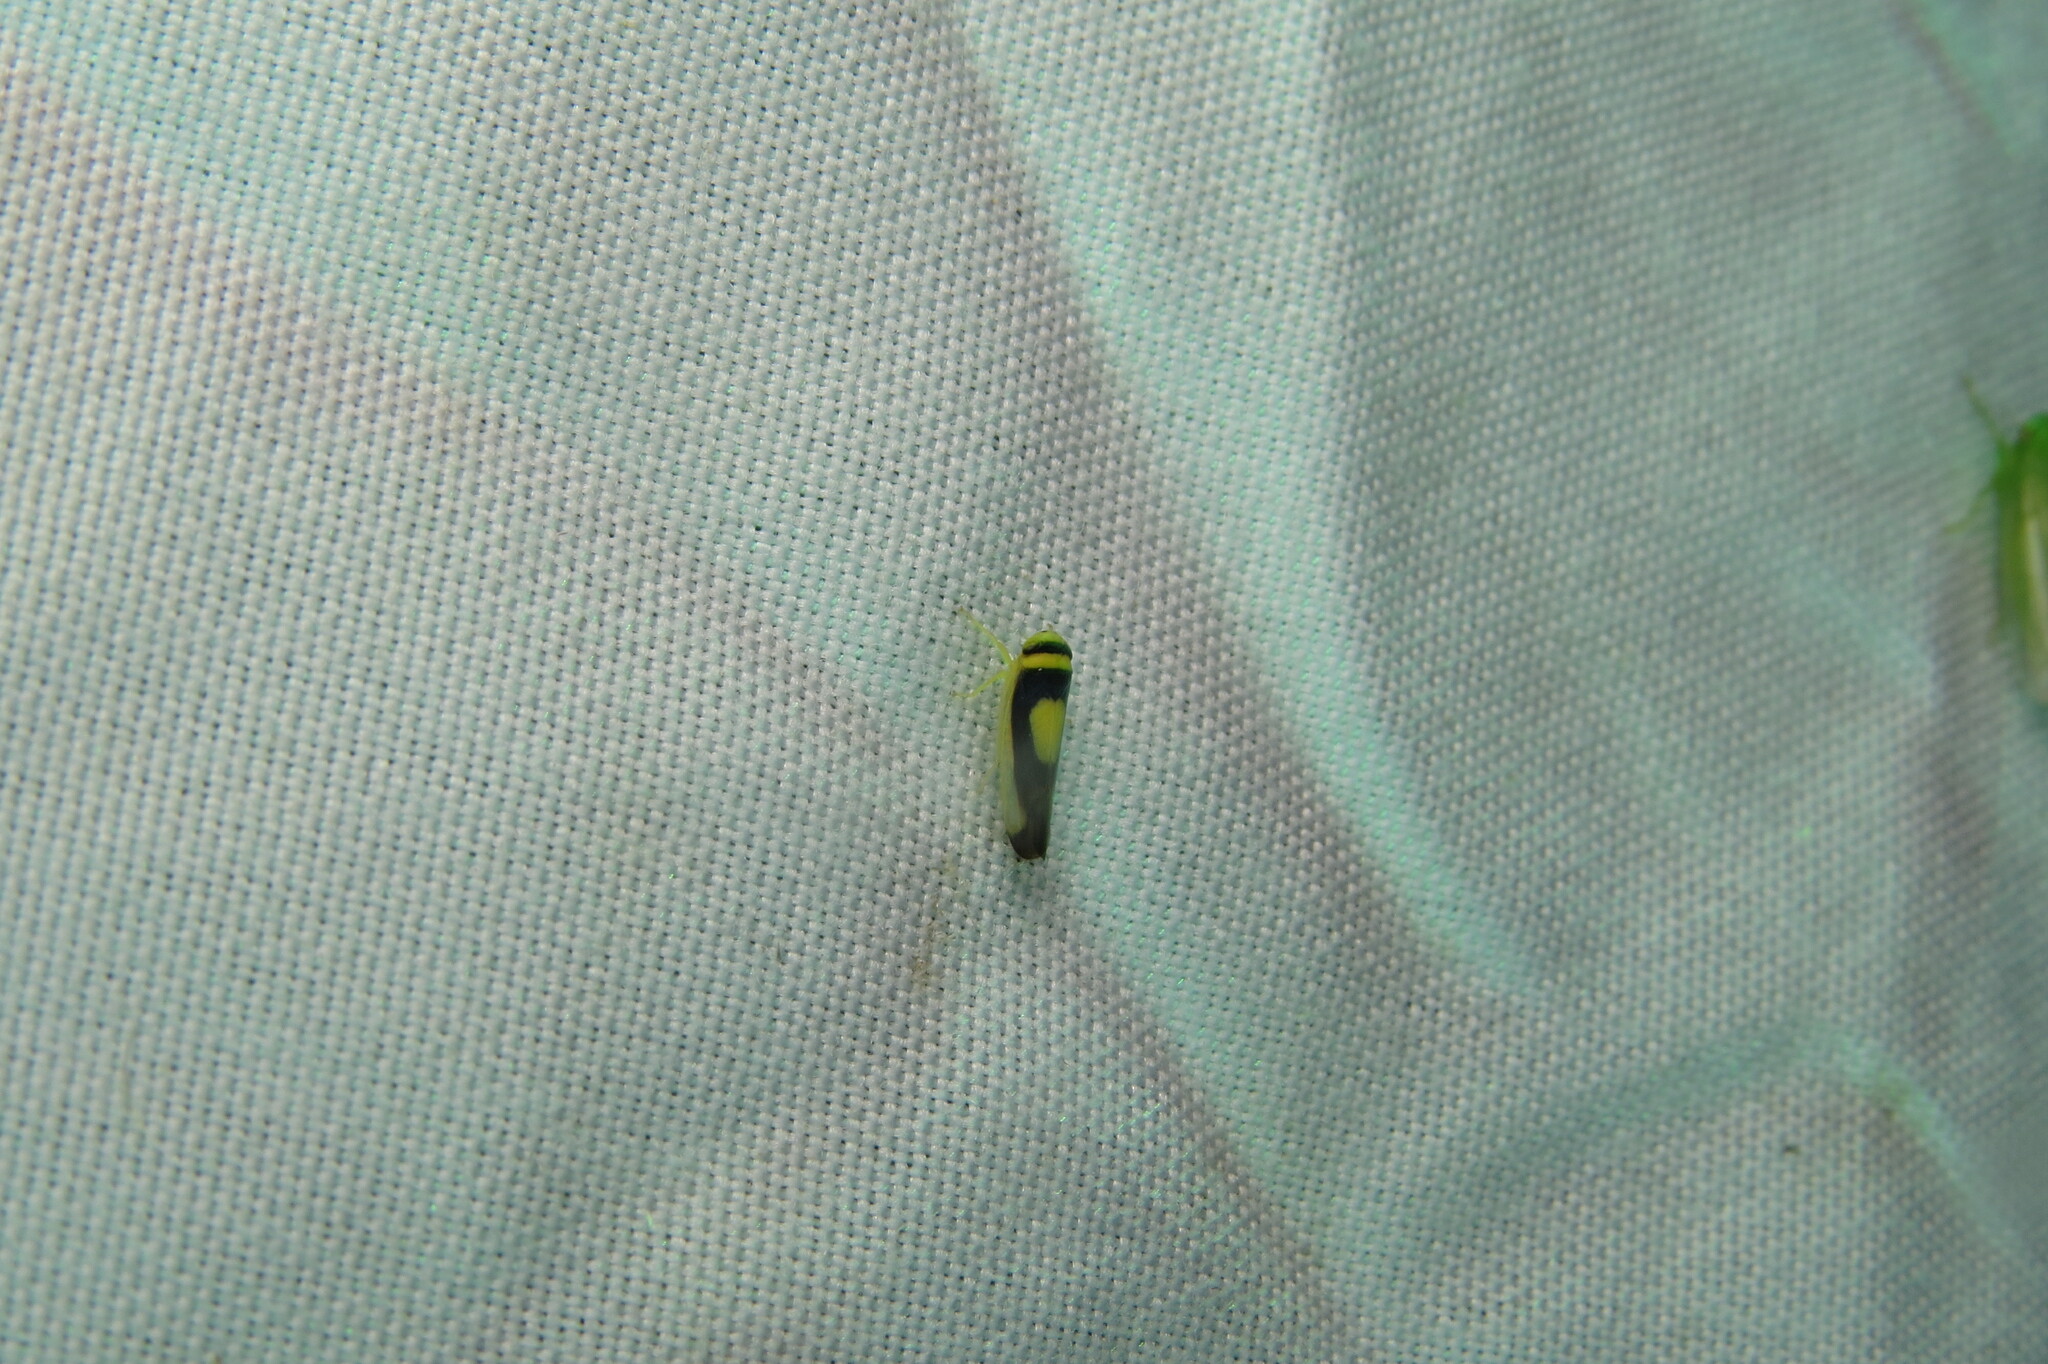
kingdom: Animalia
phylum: Arthropoda
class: Insecta
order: Hemiptera
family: Cicadellidae
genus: Colladonus
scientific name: Colladonus clitellarius
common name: The saddleback leafhopper
